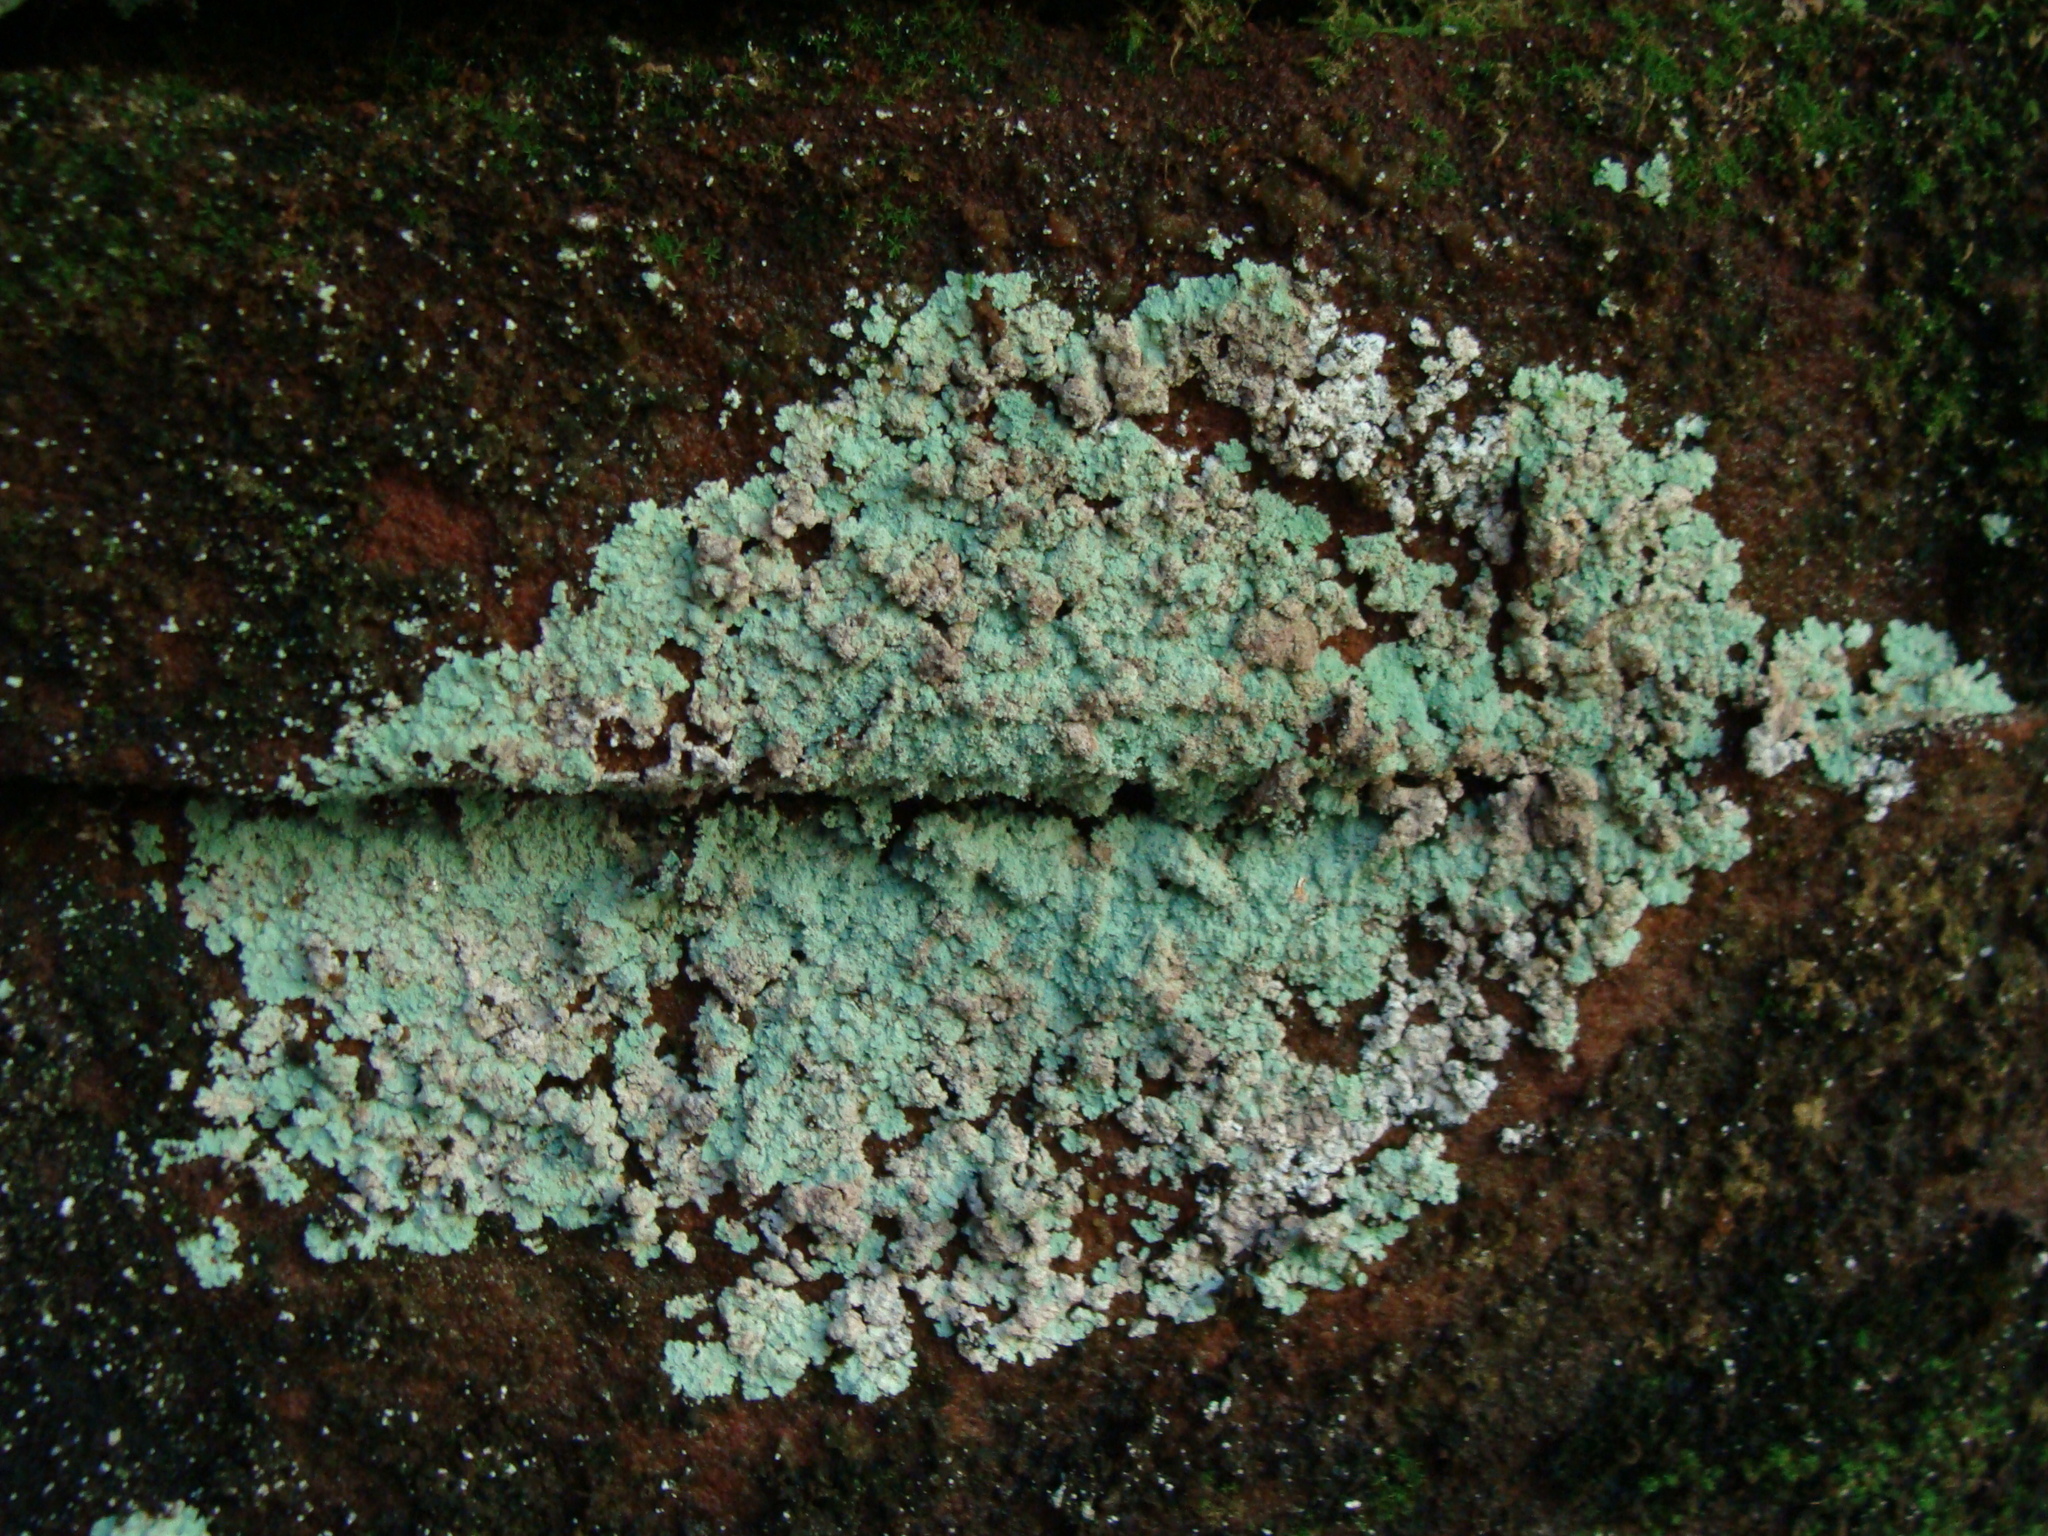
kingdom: Fungi
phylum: Ascomycota
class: Lecanoromycetes
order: Lecanorales
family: Stereocaulaceae
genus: Lepraria
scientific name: Lepraria lobificans
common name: Fluffy dust lichen
